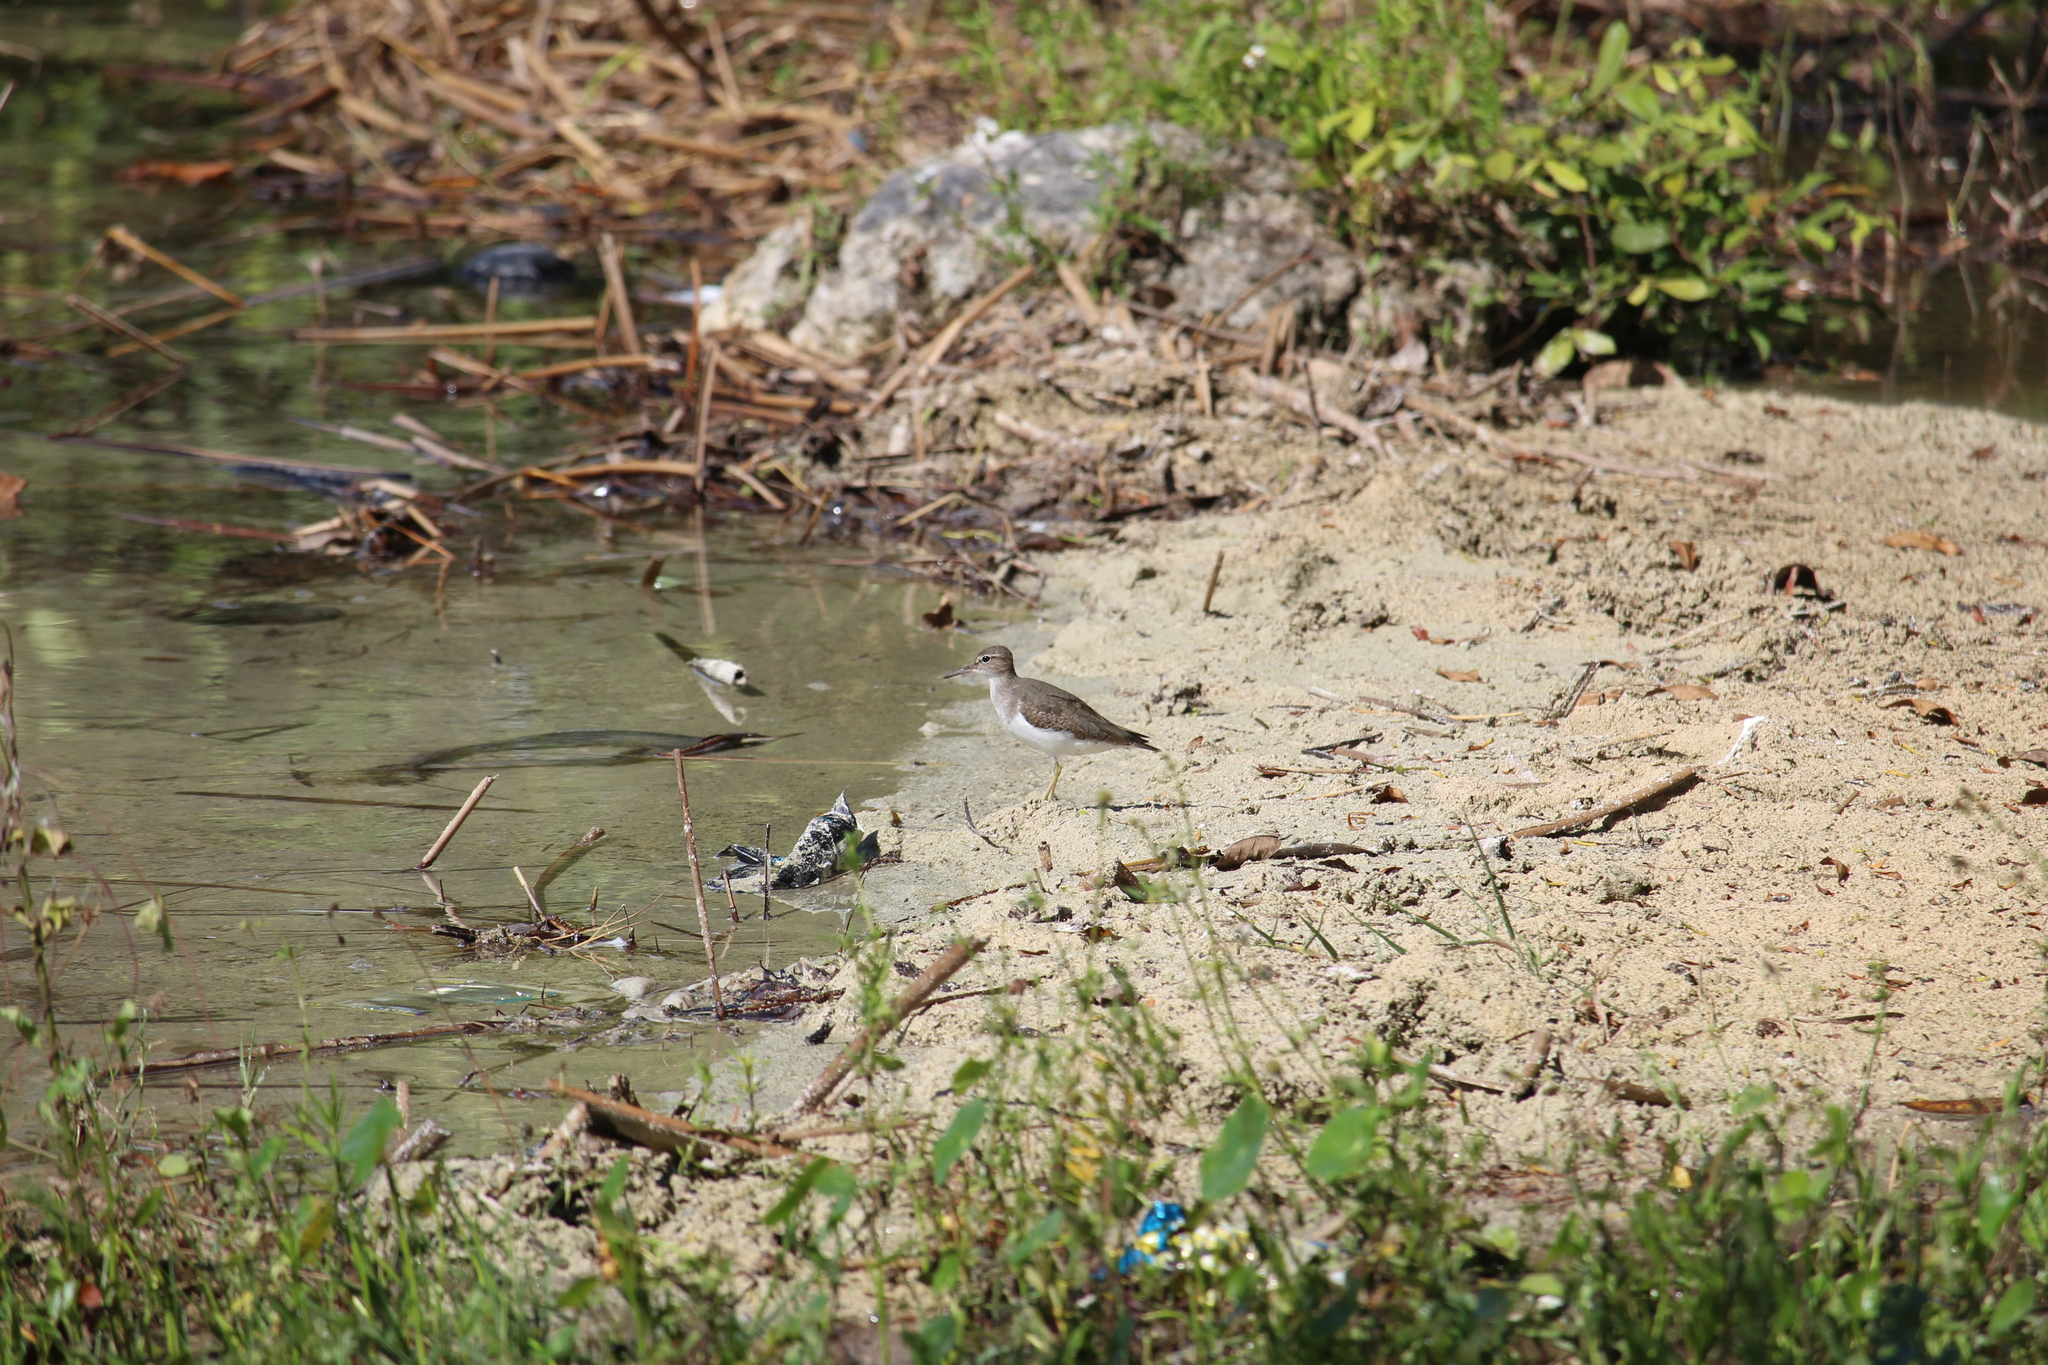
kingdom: Animalia
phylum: Chordata
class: Aves
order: Charadriiformes
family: Scolopacidae
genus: Actitis
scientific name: Actitis macularius
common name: Spotted sandpiper
